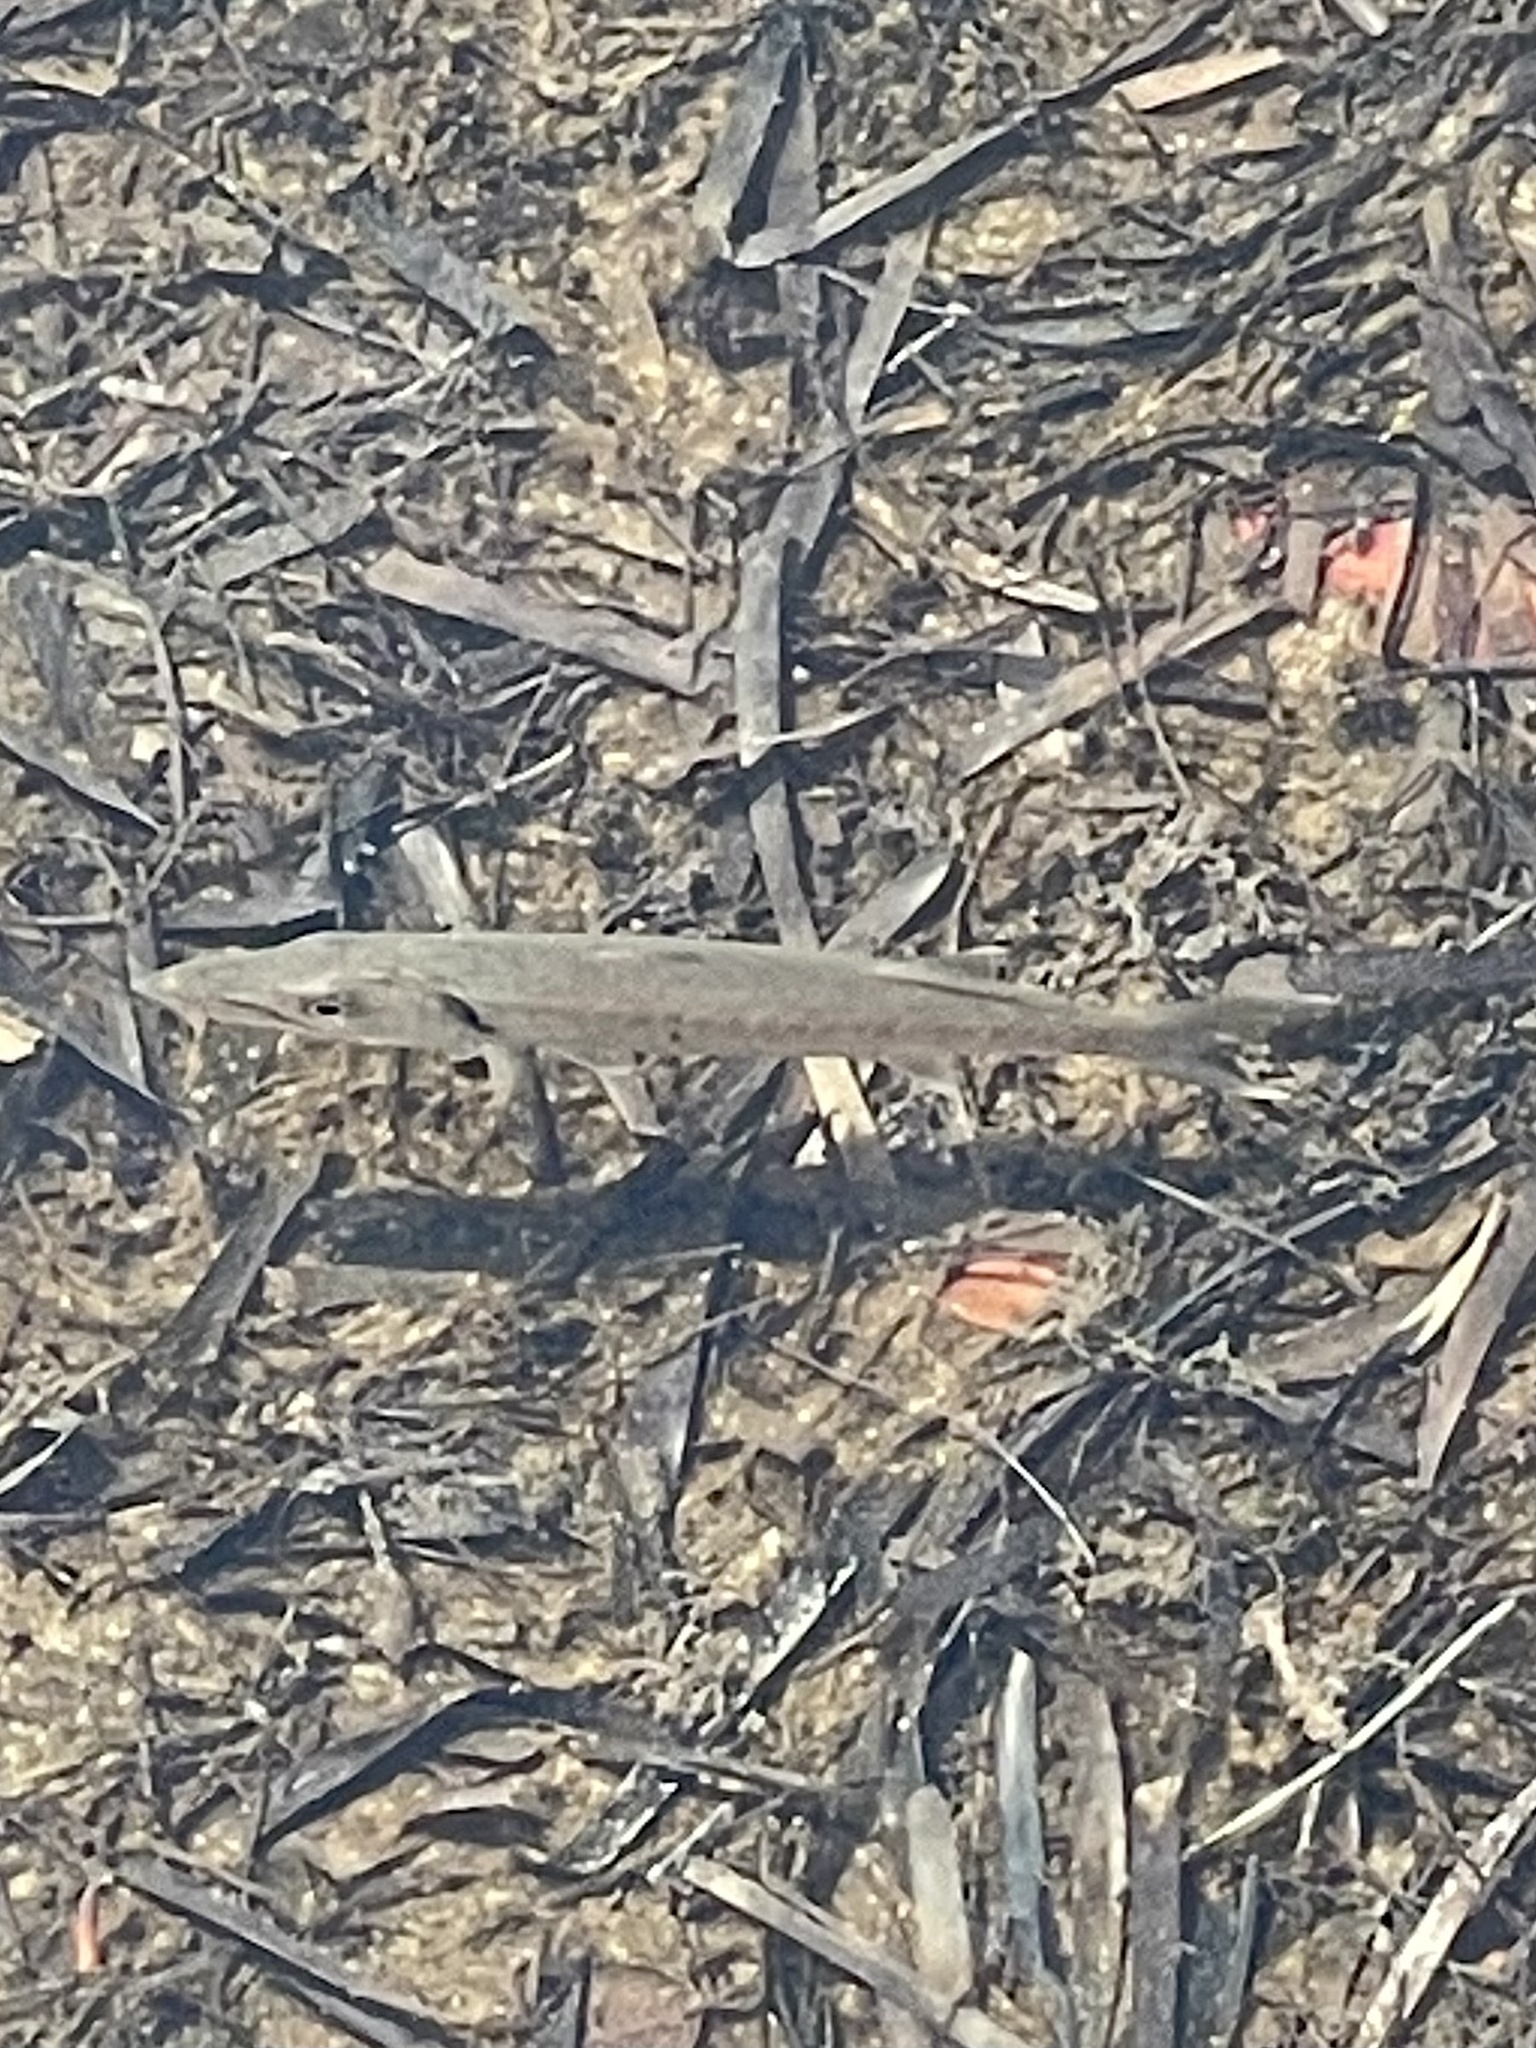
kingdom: Animalia
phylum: Chordata
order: Perciformes
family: Sphyraenidae
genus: Sphyraena
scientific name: Sphyraena barracuda
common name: Great barracuda
